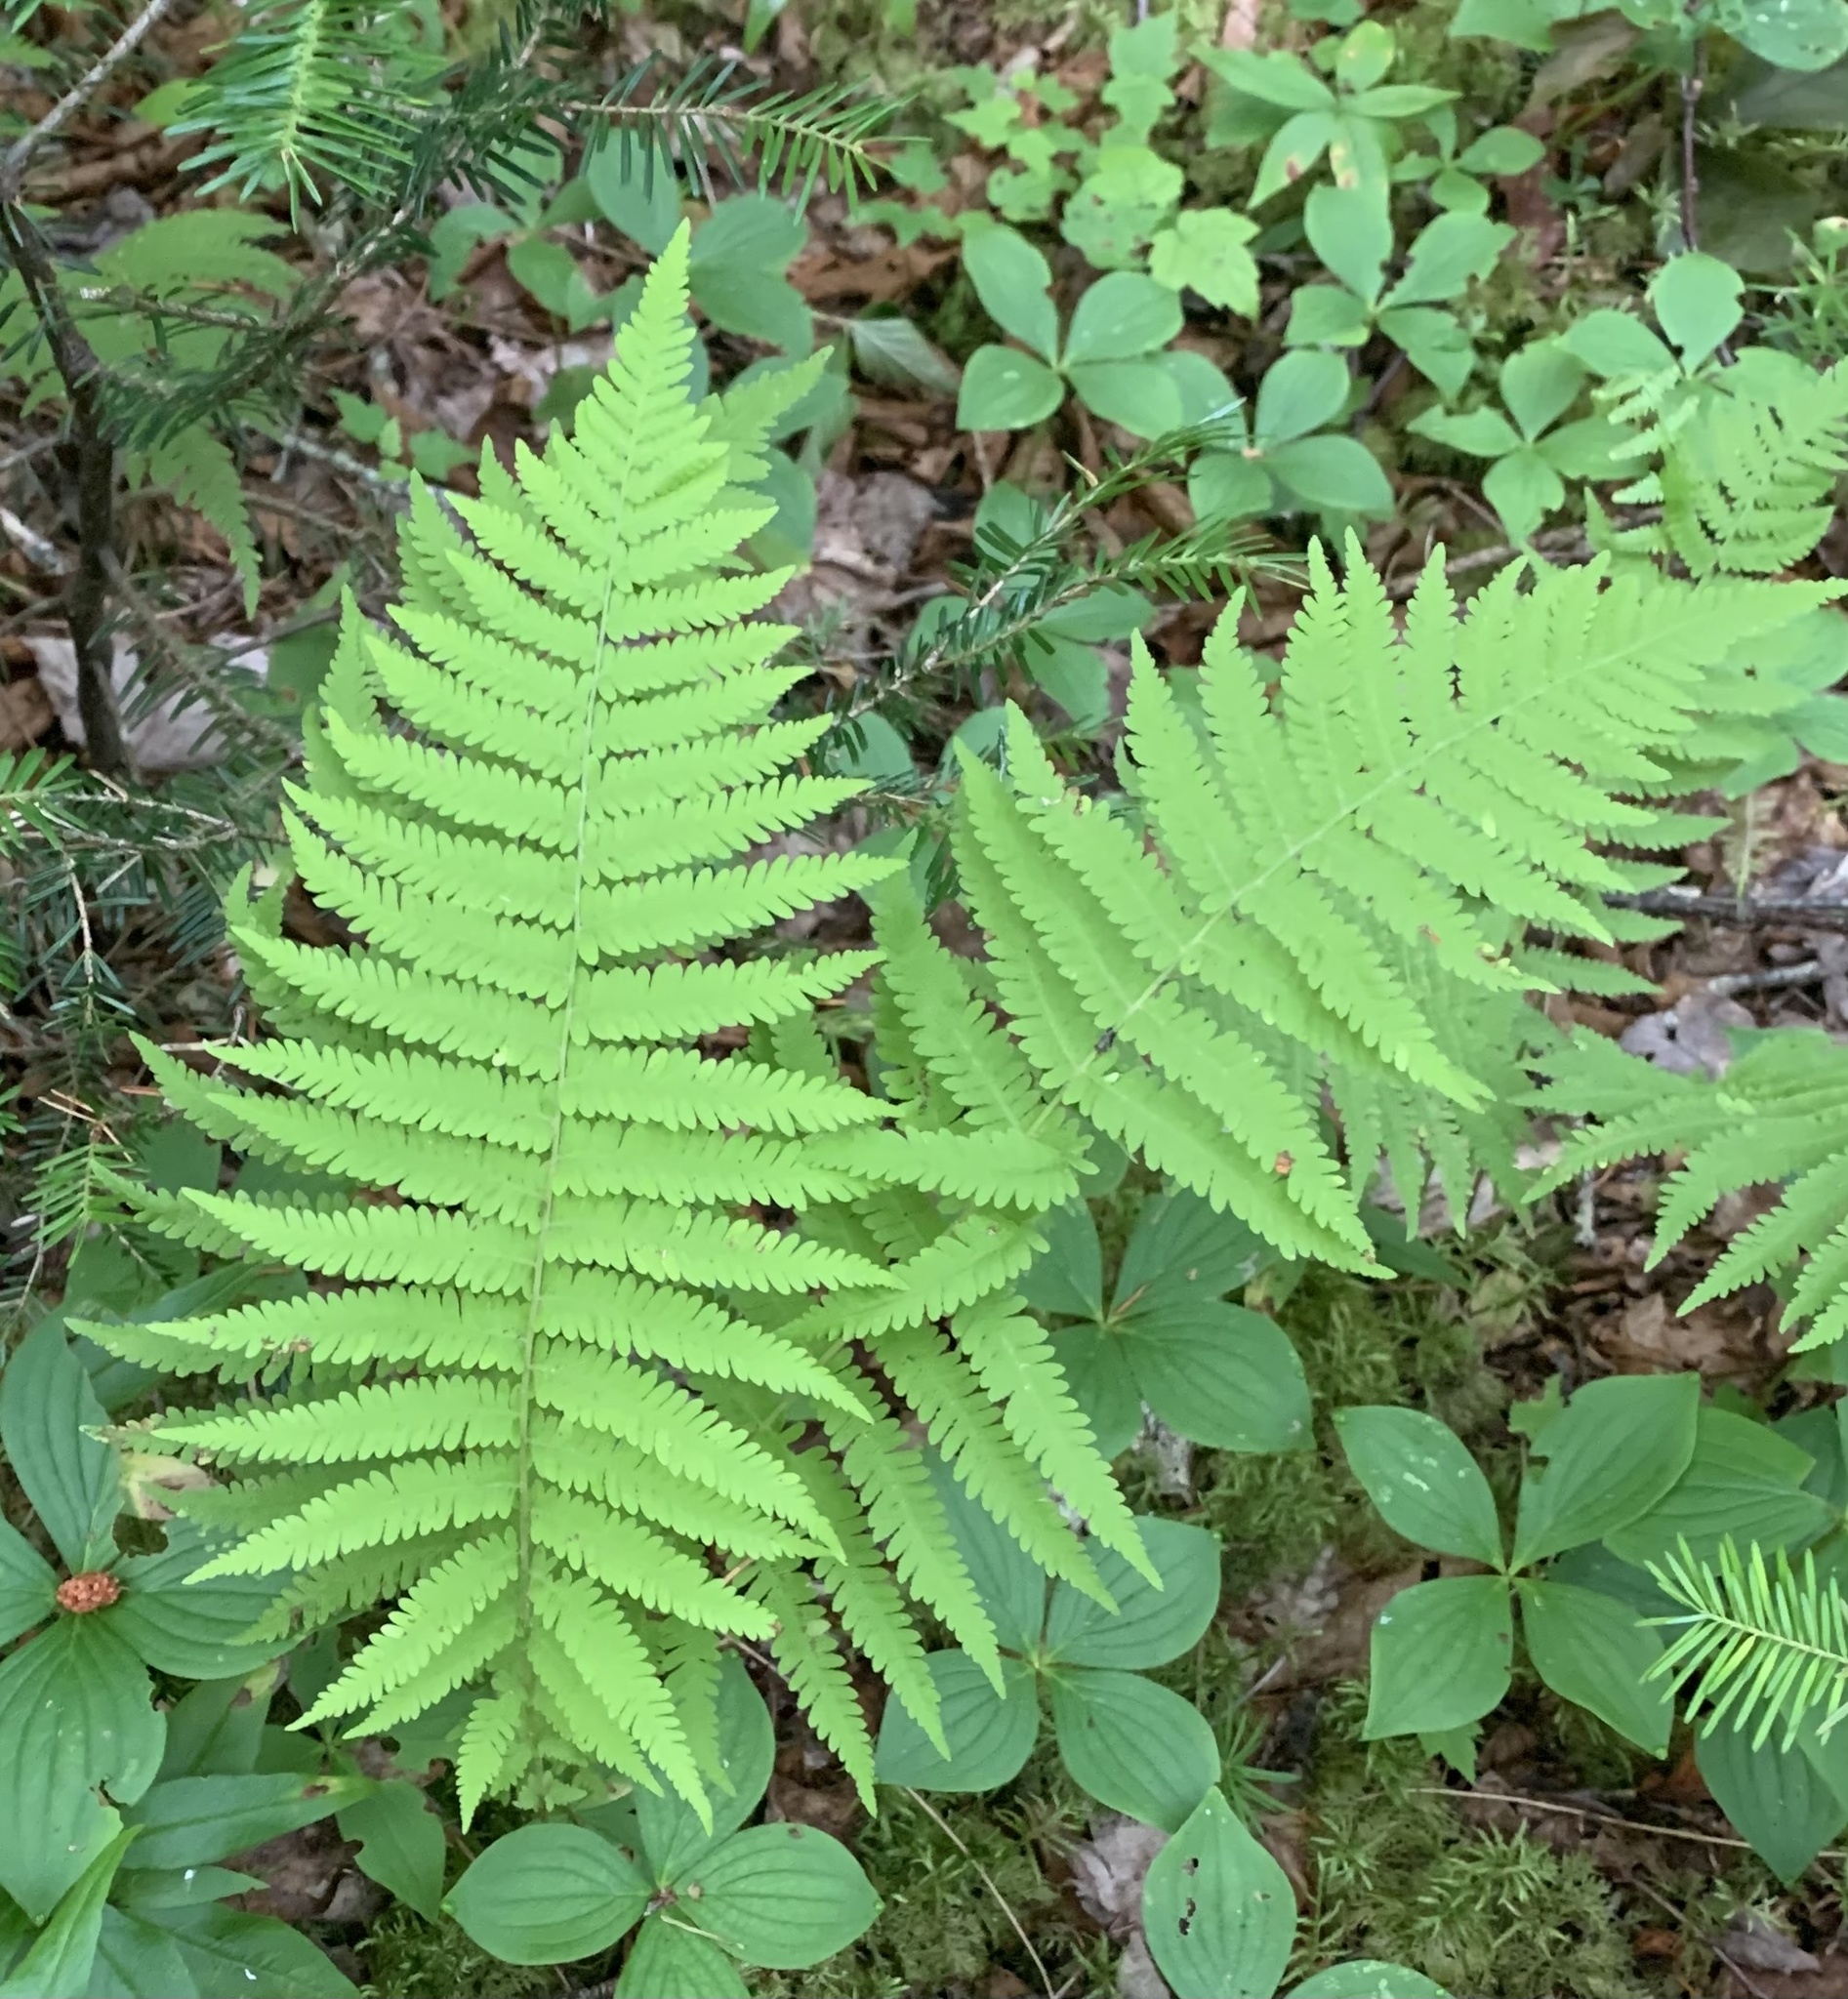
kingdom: Plantae
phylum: Tracheophyta
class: Polypodiopsida
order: Polypodiales
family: Thelypteridaceae
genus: Thelypteris
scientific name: Thelypteris palustris
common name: Marsh fern
